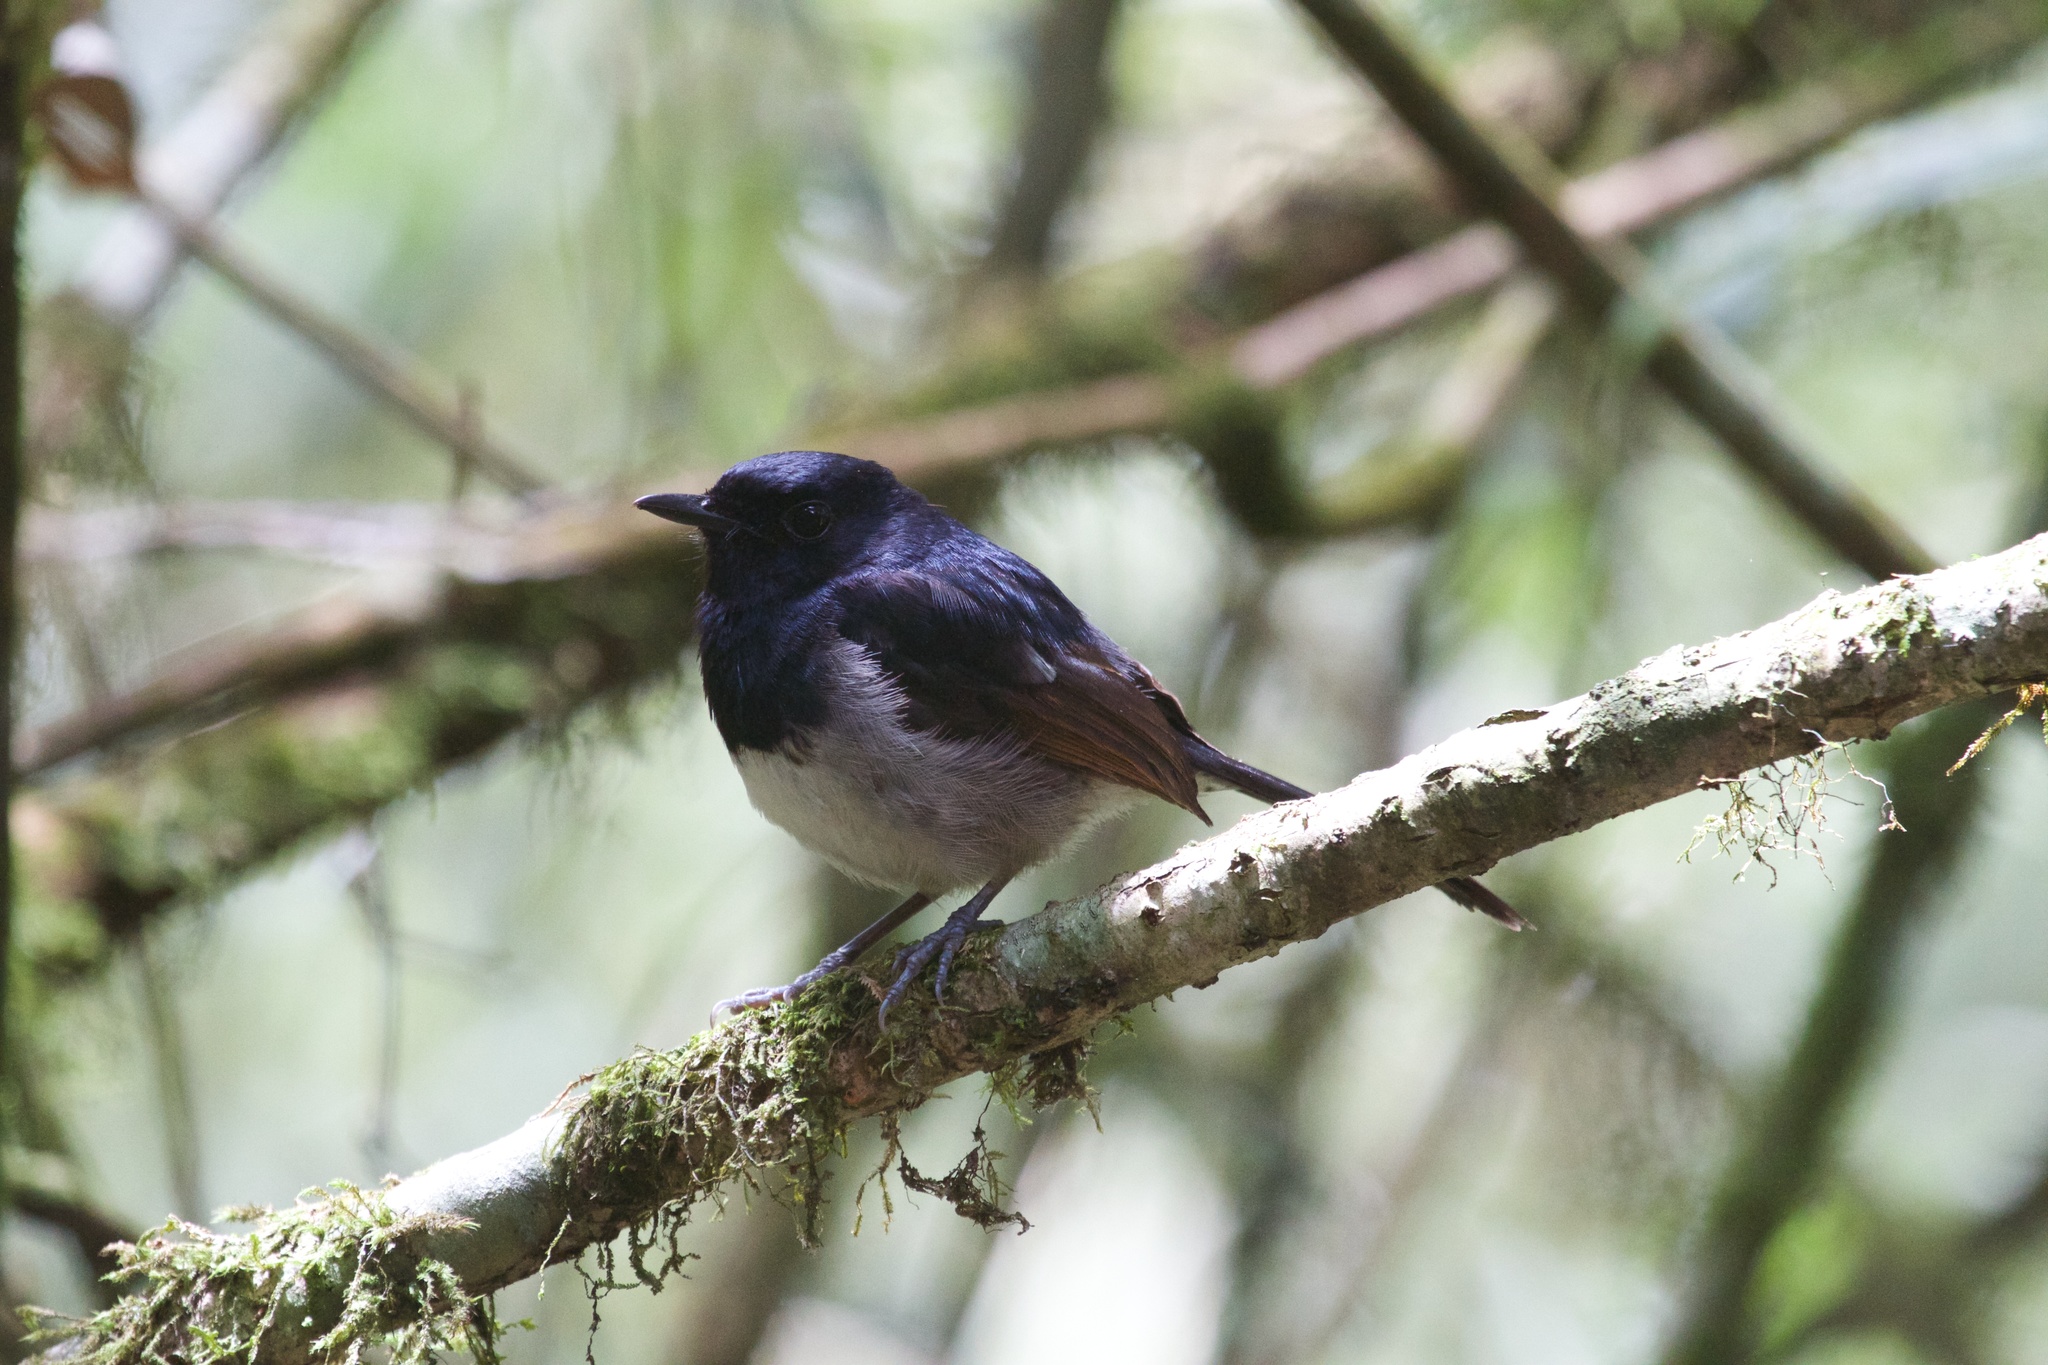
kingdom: Animalia
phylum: Chordata
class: Aves
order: Passeriformes
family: Muscicapidae
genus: Copsychus
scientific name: Copsychus albospecularis
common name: Madagascar magpie-robin
